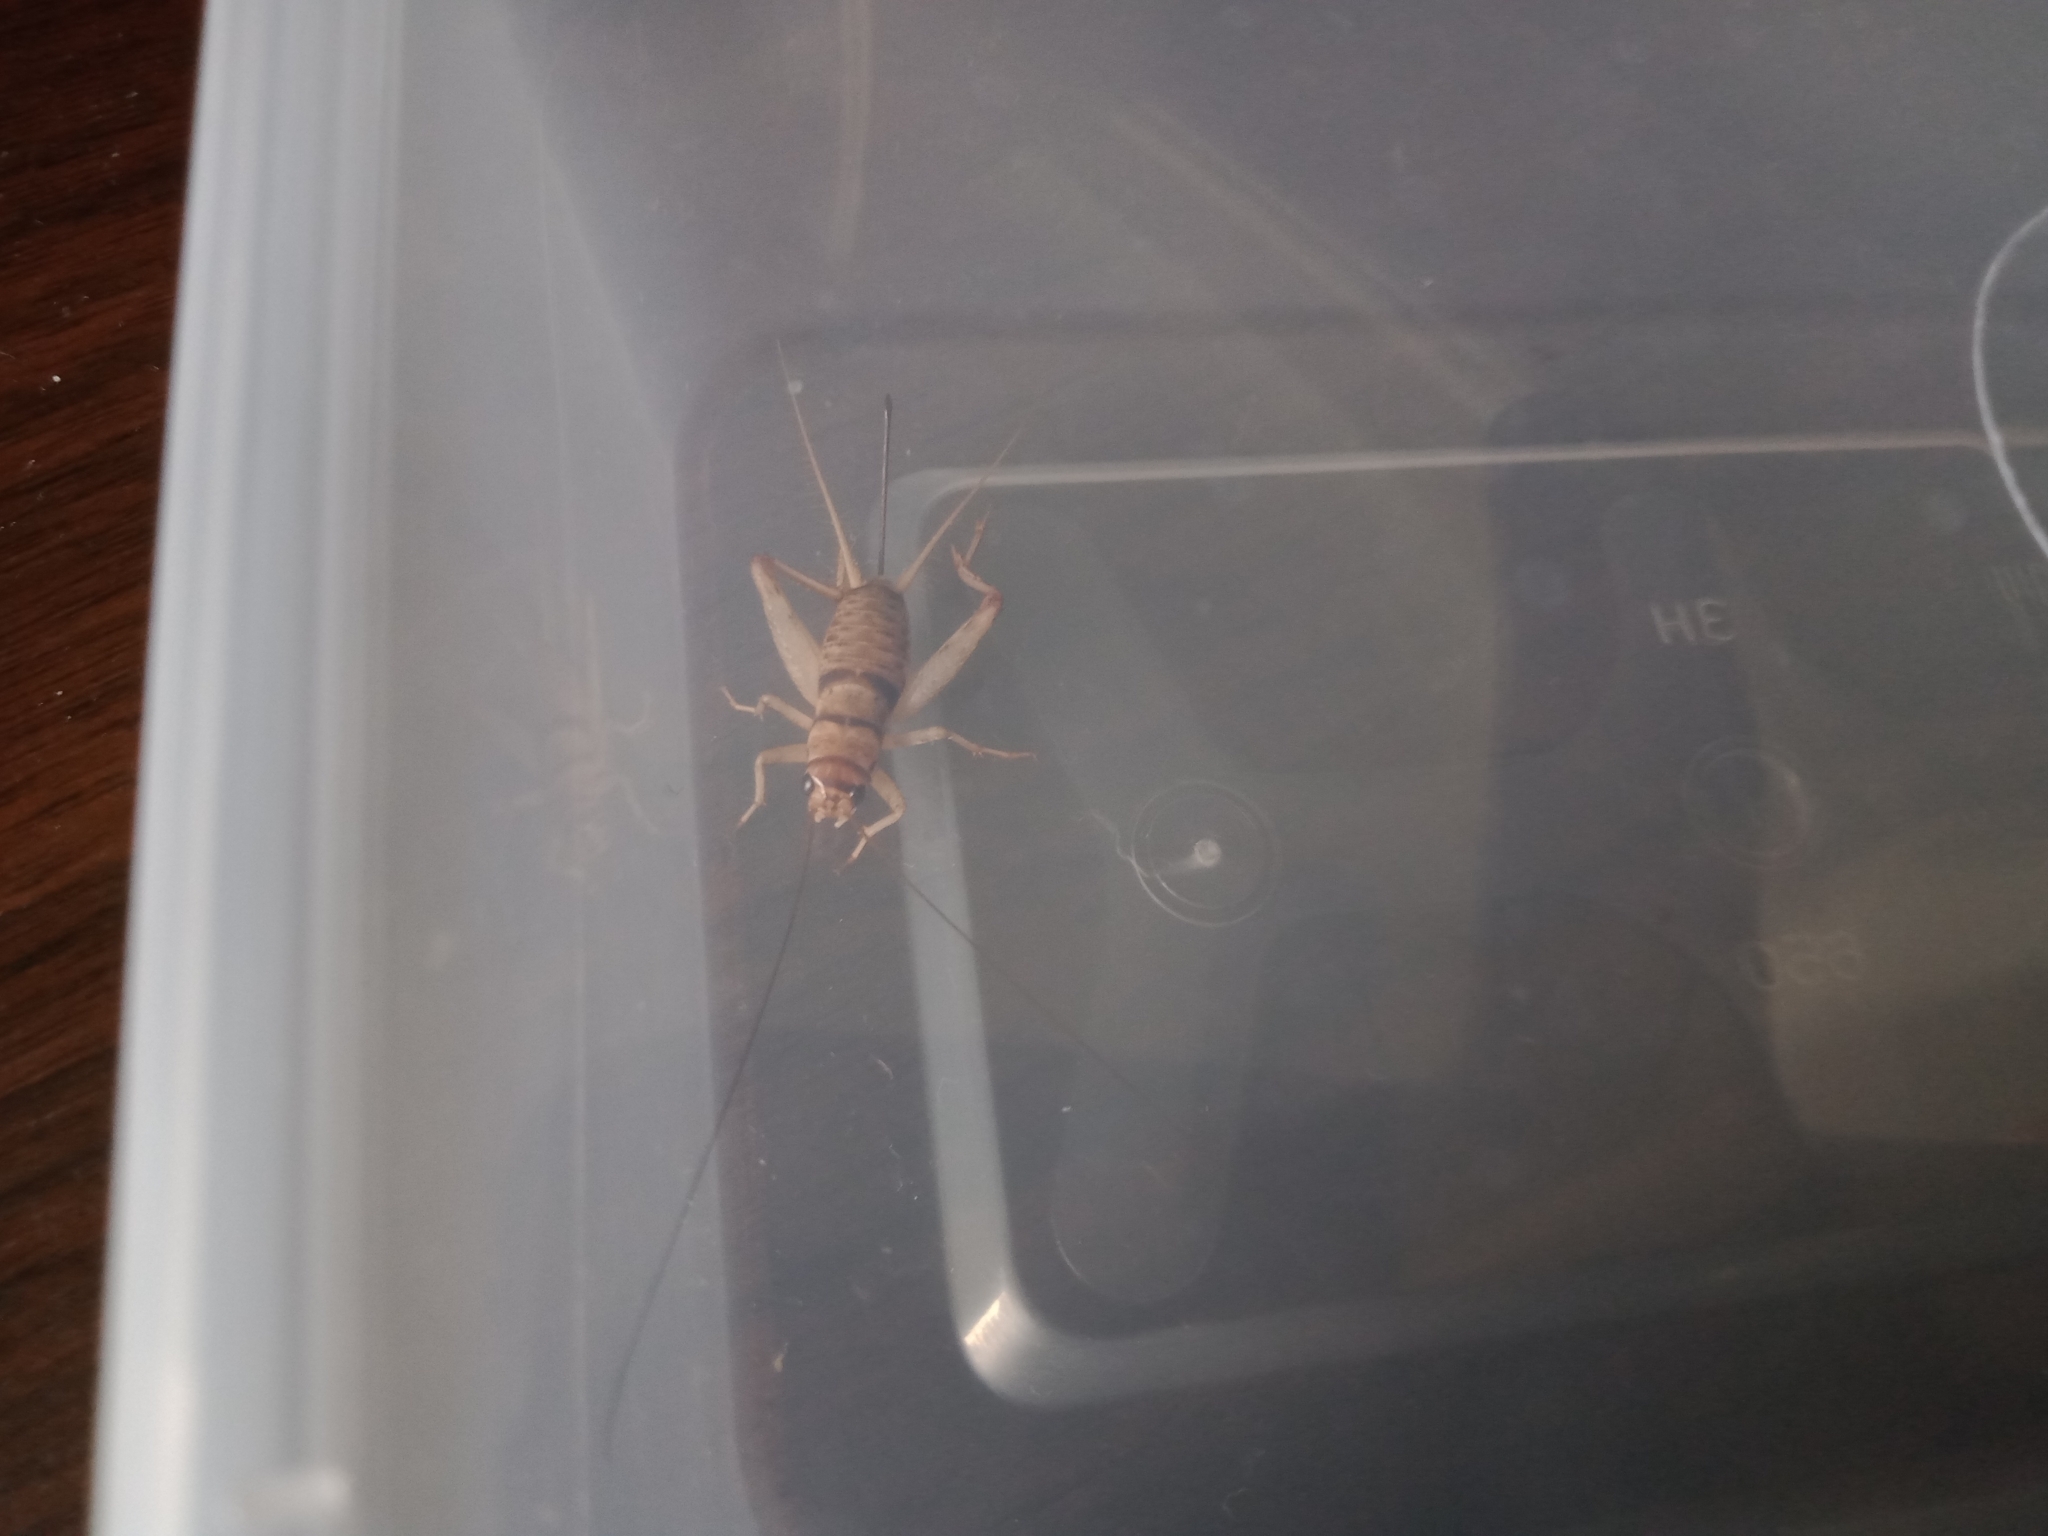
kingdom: Animalia
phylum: Arthropoda
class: Insecta
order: Orthoptera
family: Gryllidae
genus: Gryllodes
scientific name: Gryllodes sigillatus
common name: Tropical house cricket
